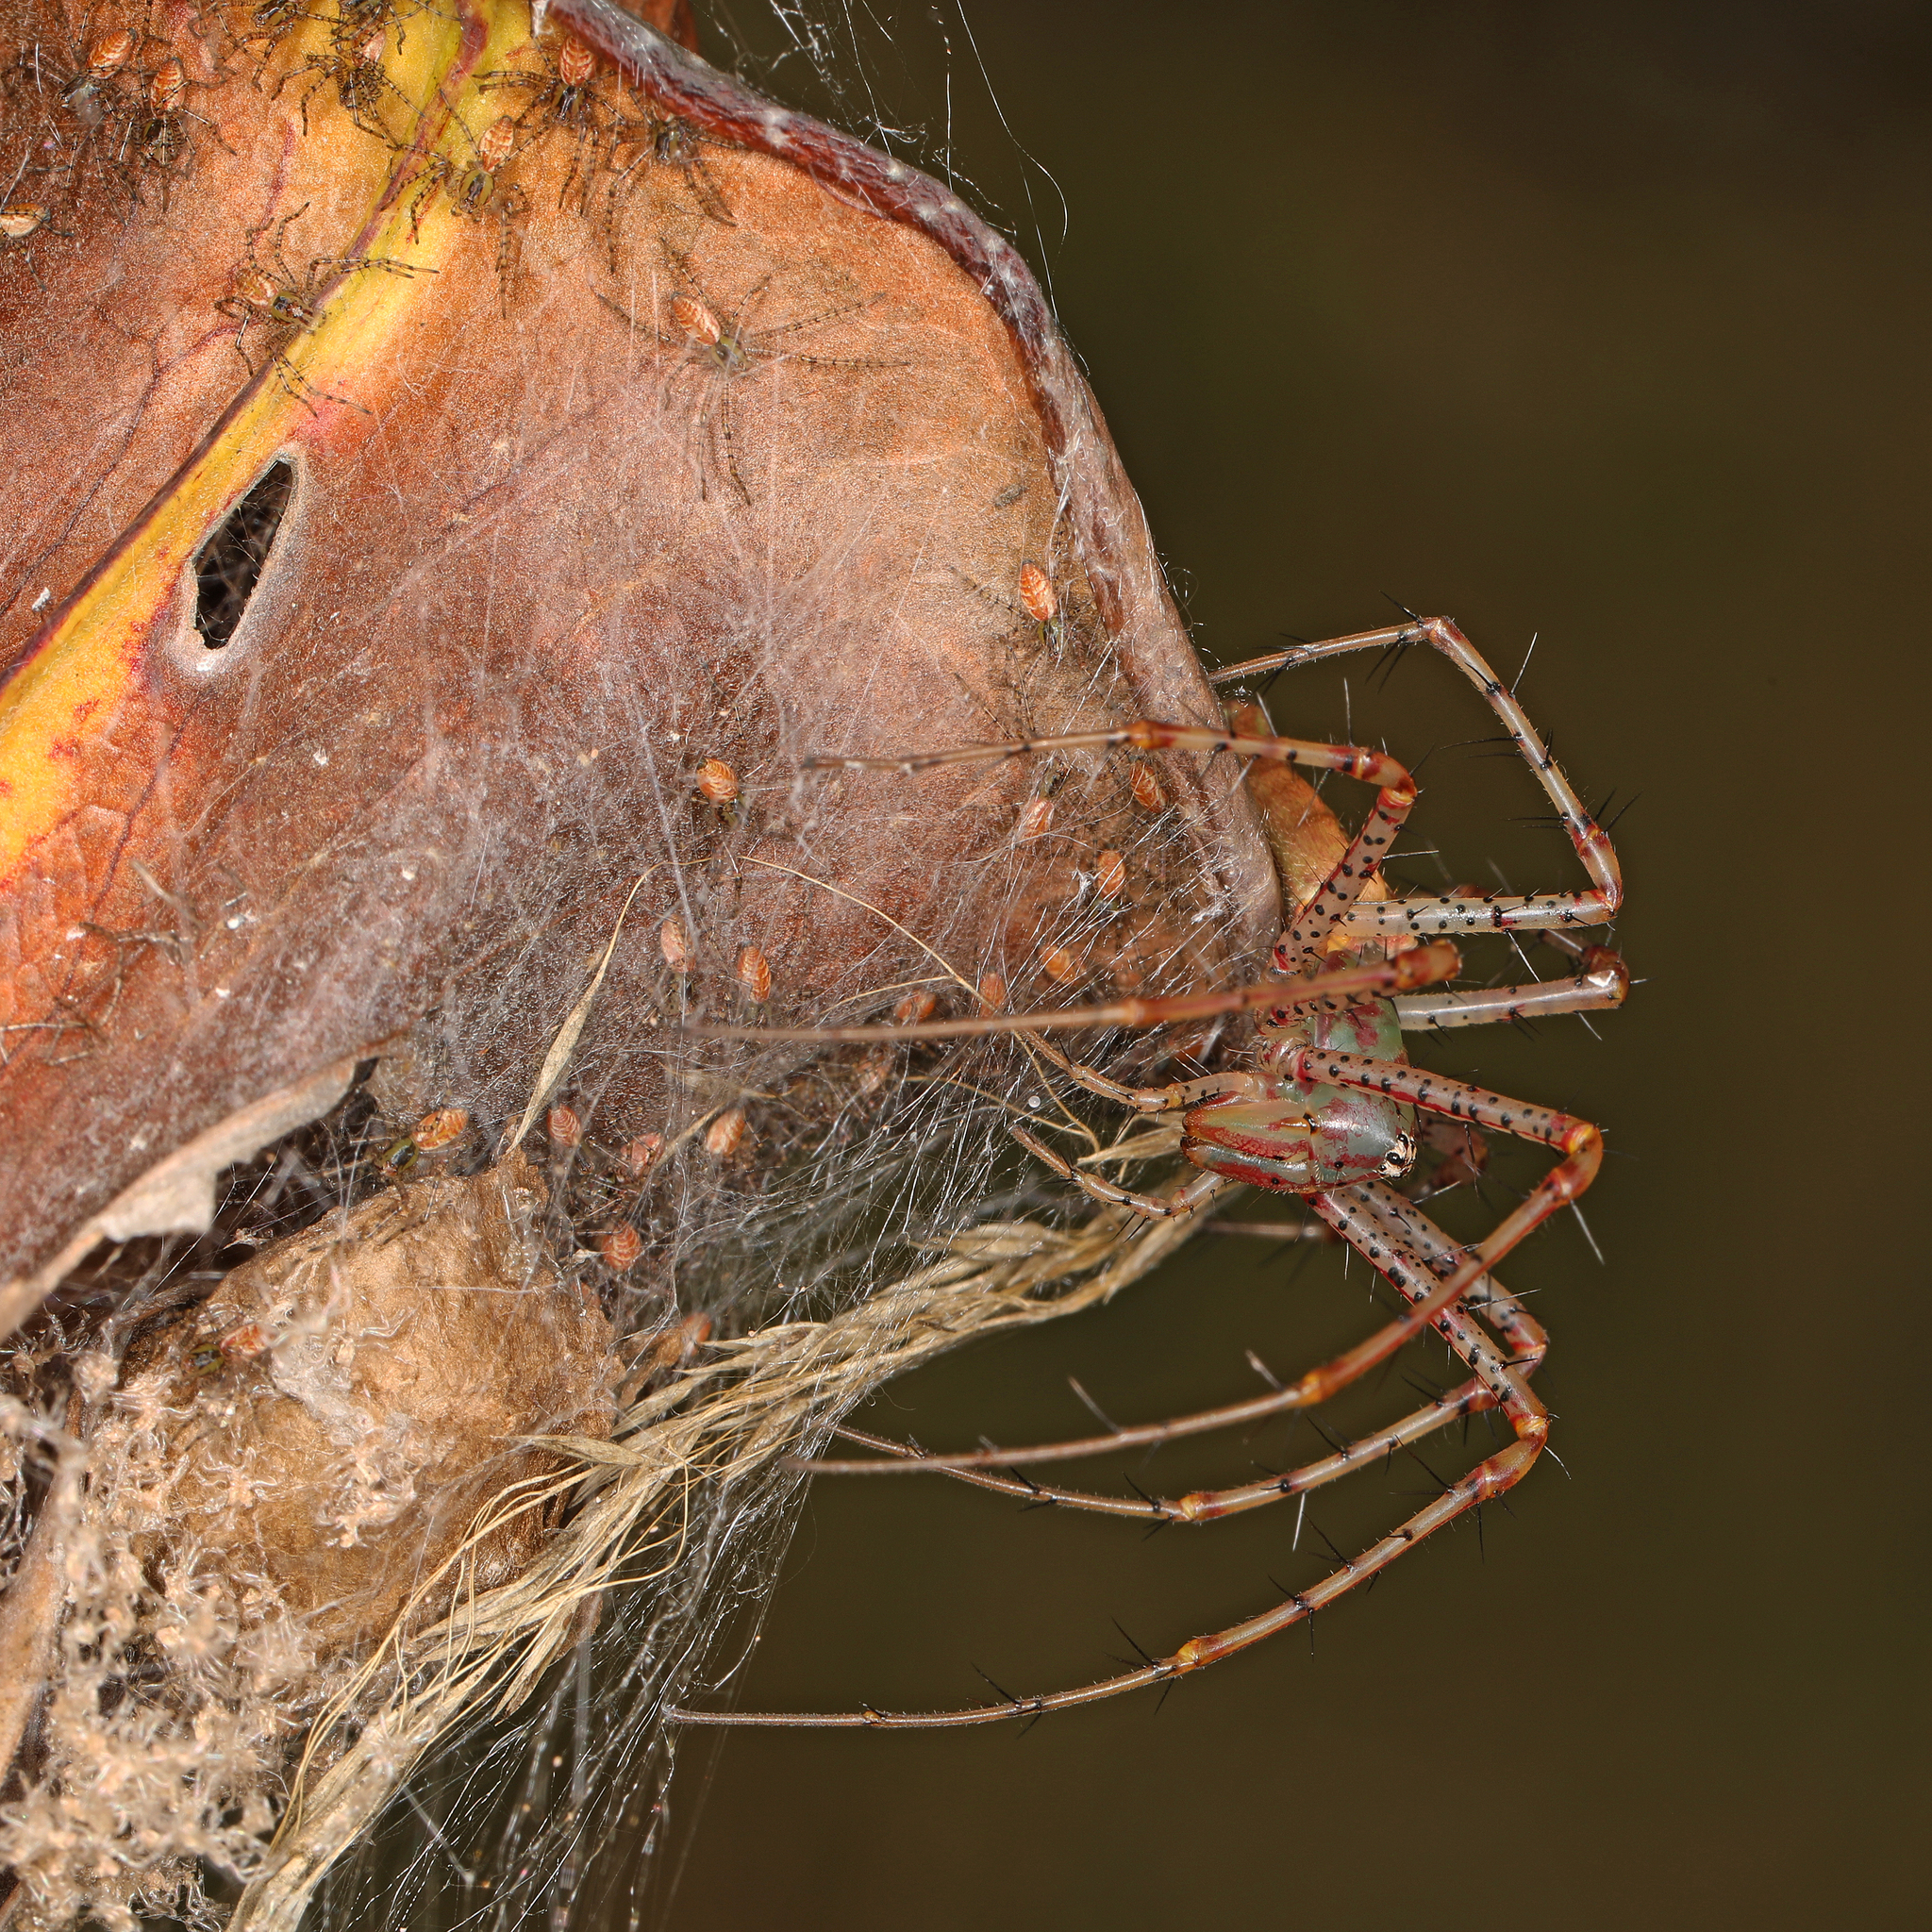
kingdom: Animalia
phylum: Arthropoda
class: Arachnida
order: Araneae
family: Oxyopidae
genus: Peucetia
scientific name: Peucetia viridans
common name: Lynx spiders
